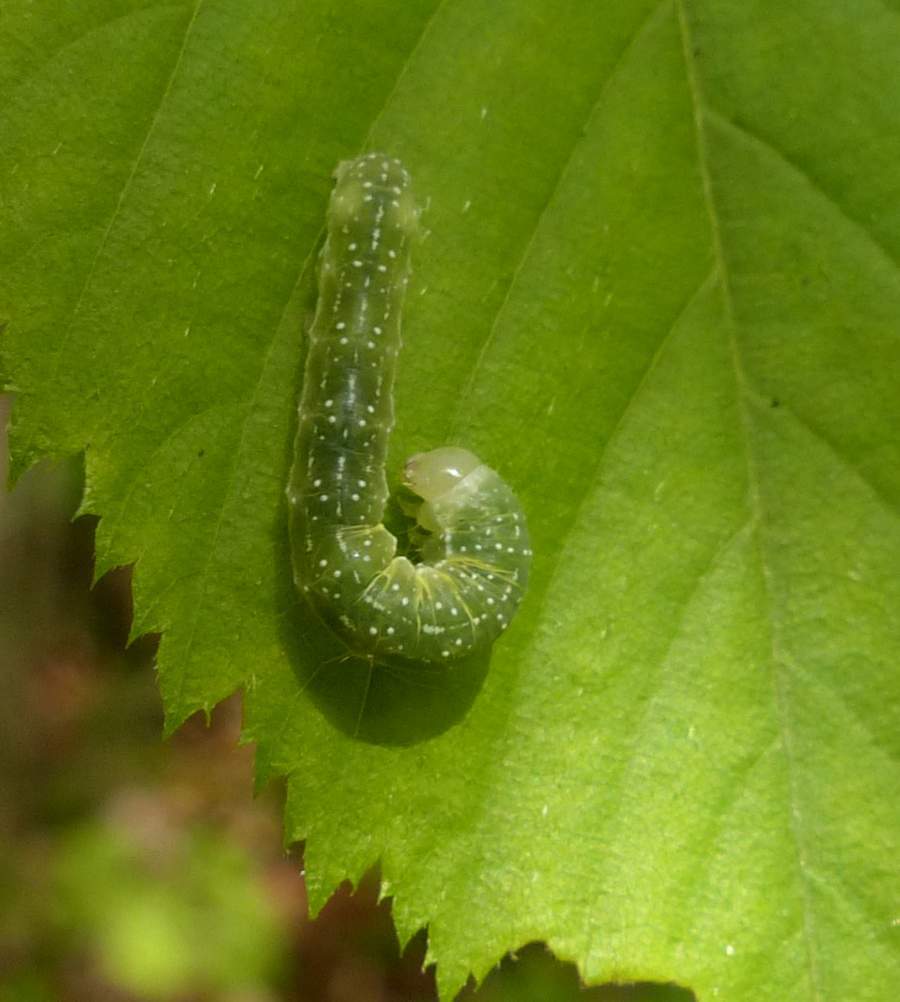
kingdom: Animalia
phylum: Arthropoda
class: Insecta
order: Lepidoptera
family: Noctuidae
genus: Lithophane
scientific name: Lithophane unimoda
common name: Dowdy pinion
